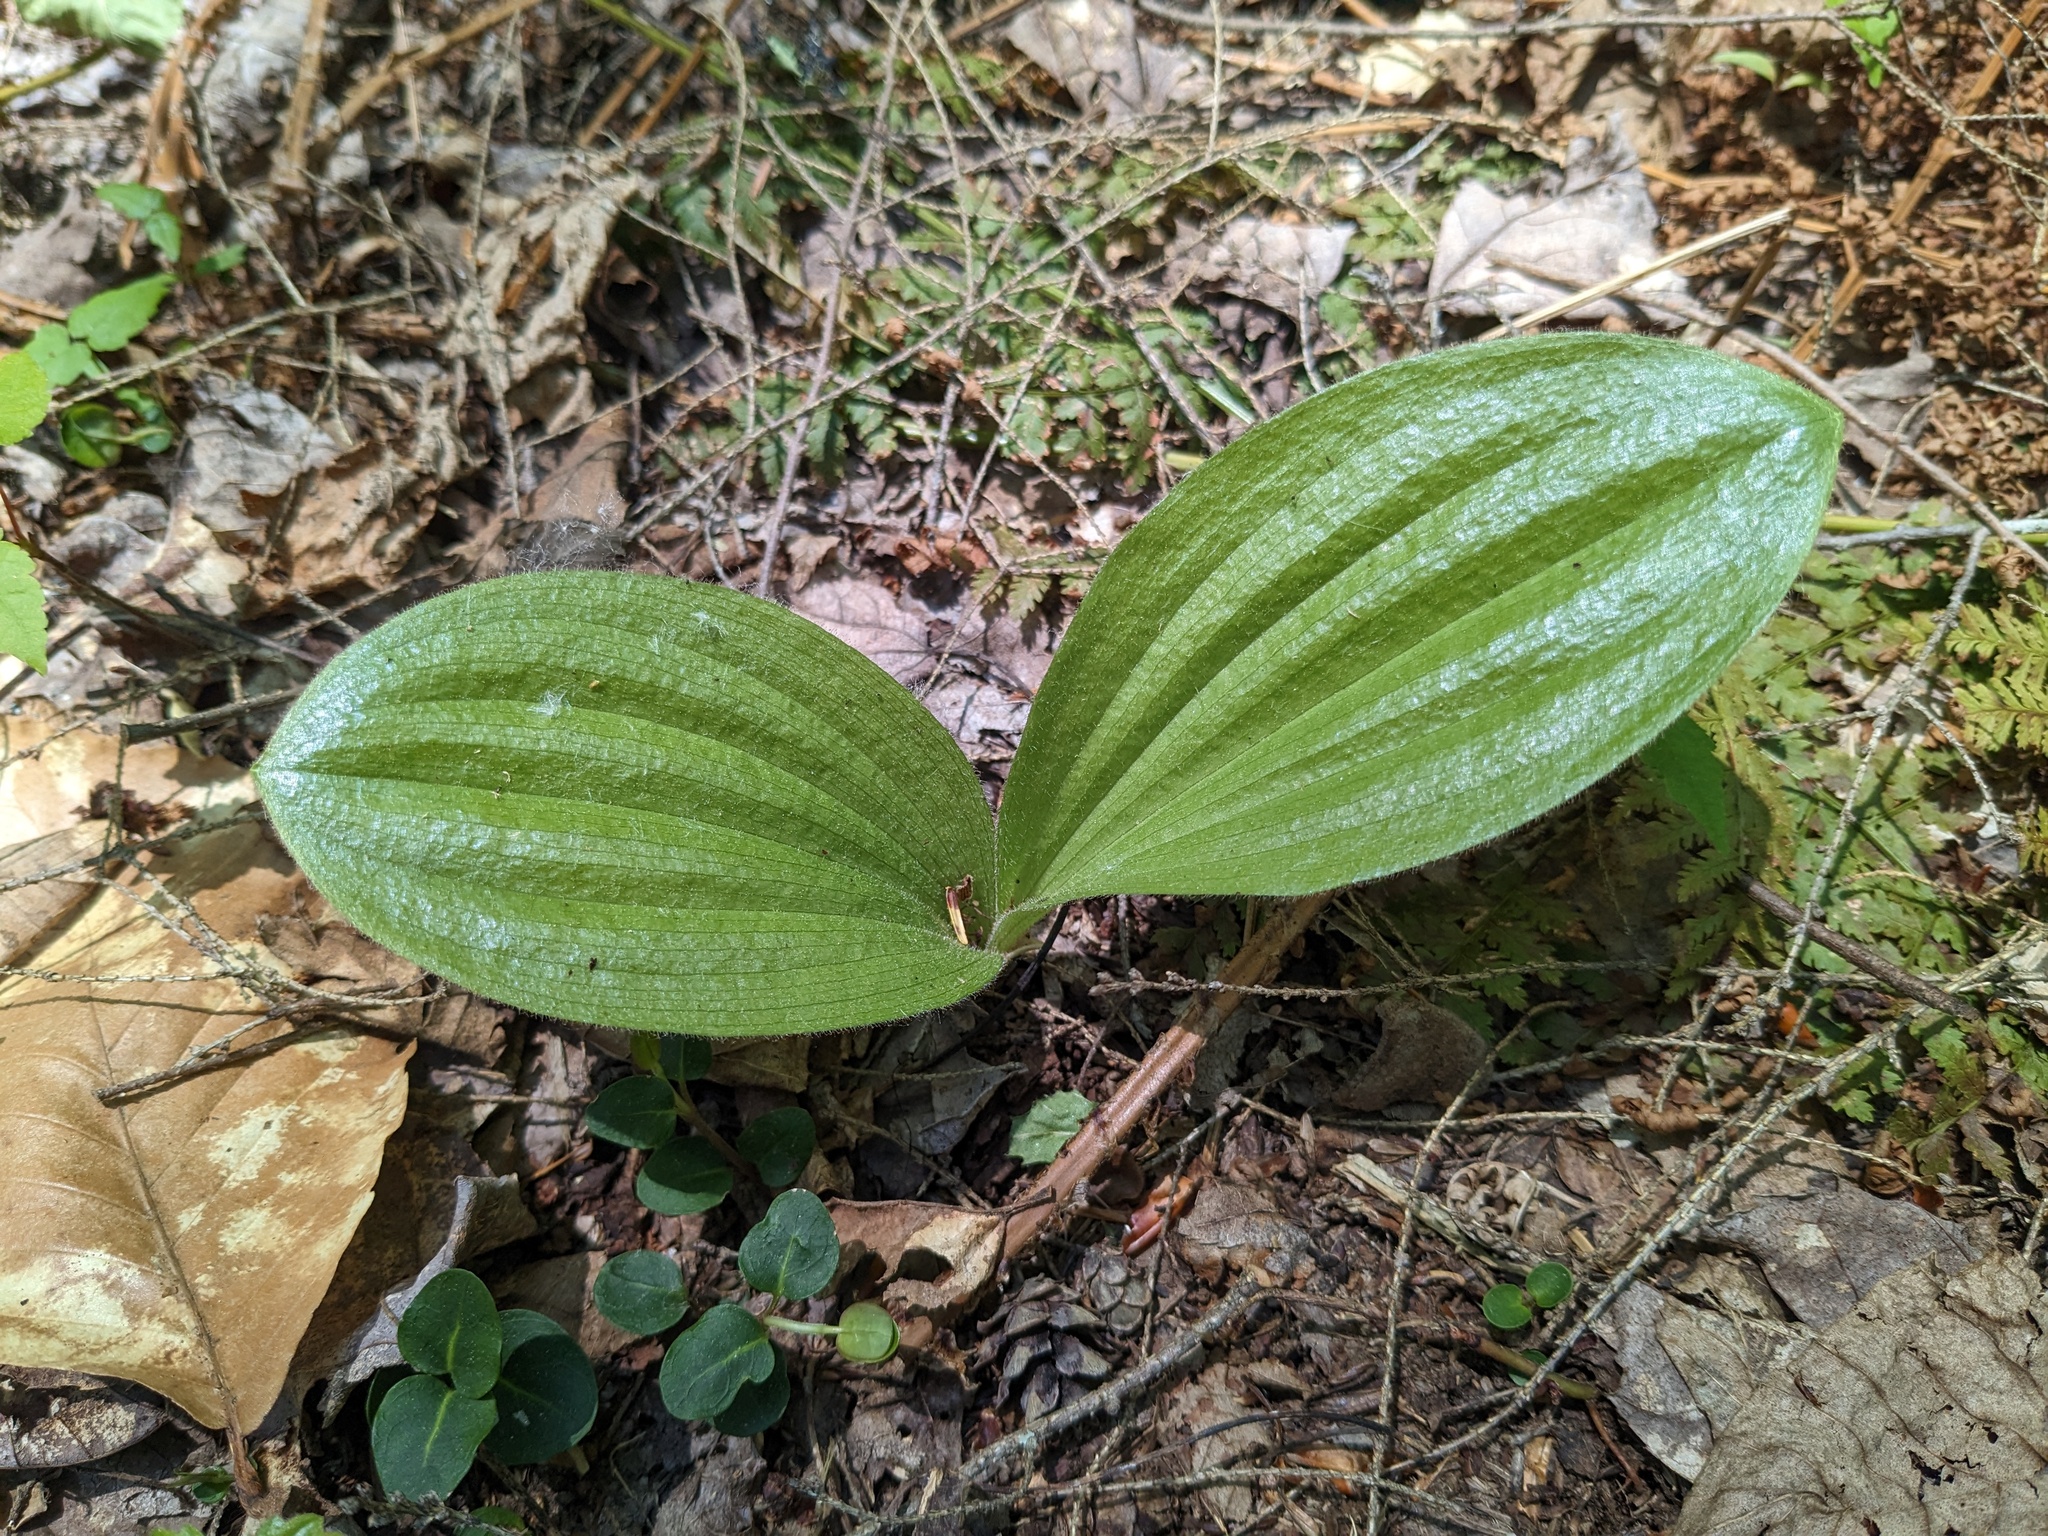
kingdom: Plantae
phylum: Tracheophyta
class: Liliopsida
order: Asparagales
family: Orchidaceae
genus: Cypripedium
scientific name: Cypripedium acaule
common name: Pink lady's-slipper
